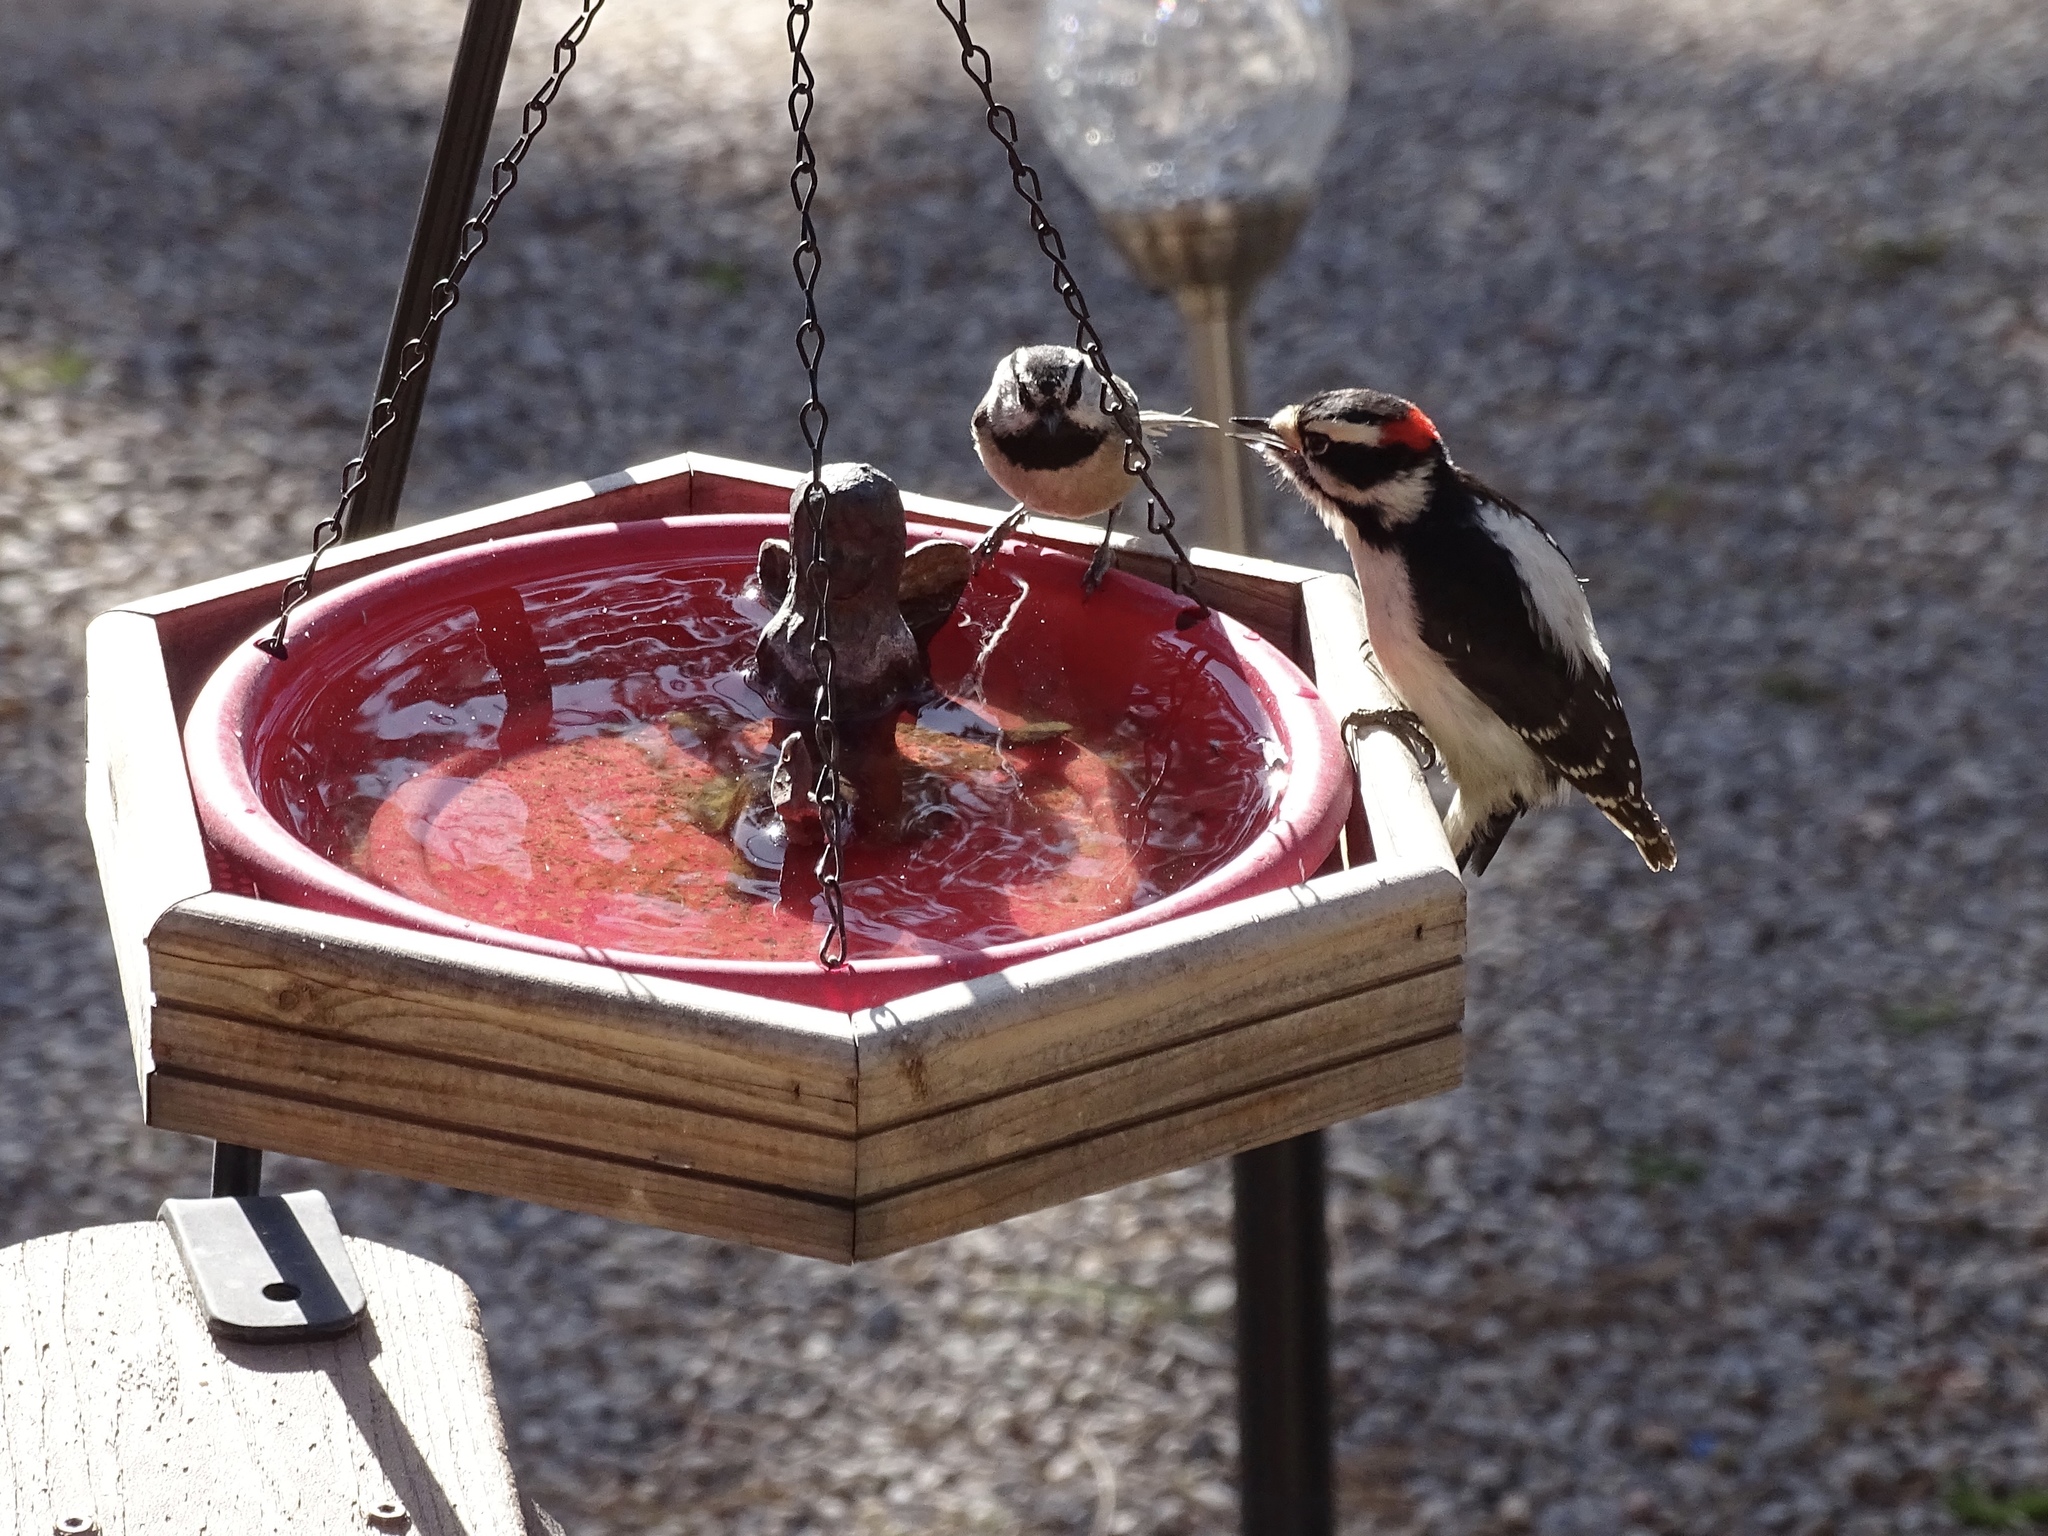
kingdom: Animalia
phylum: Chordata
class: Aves
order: Piciformes
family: Picidae
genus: Dryobates
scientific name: Dryobates pubescens
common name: Downy woodpecker
